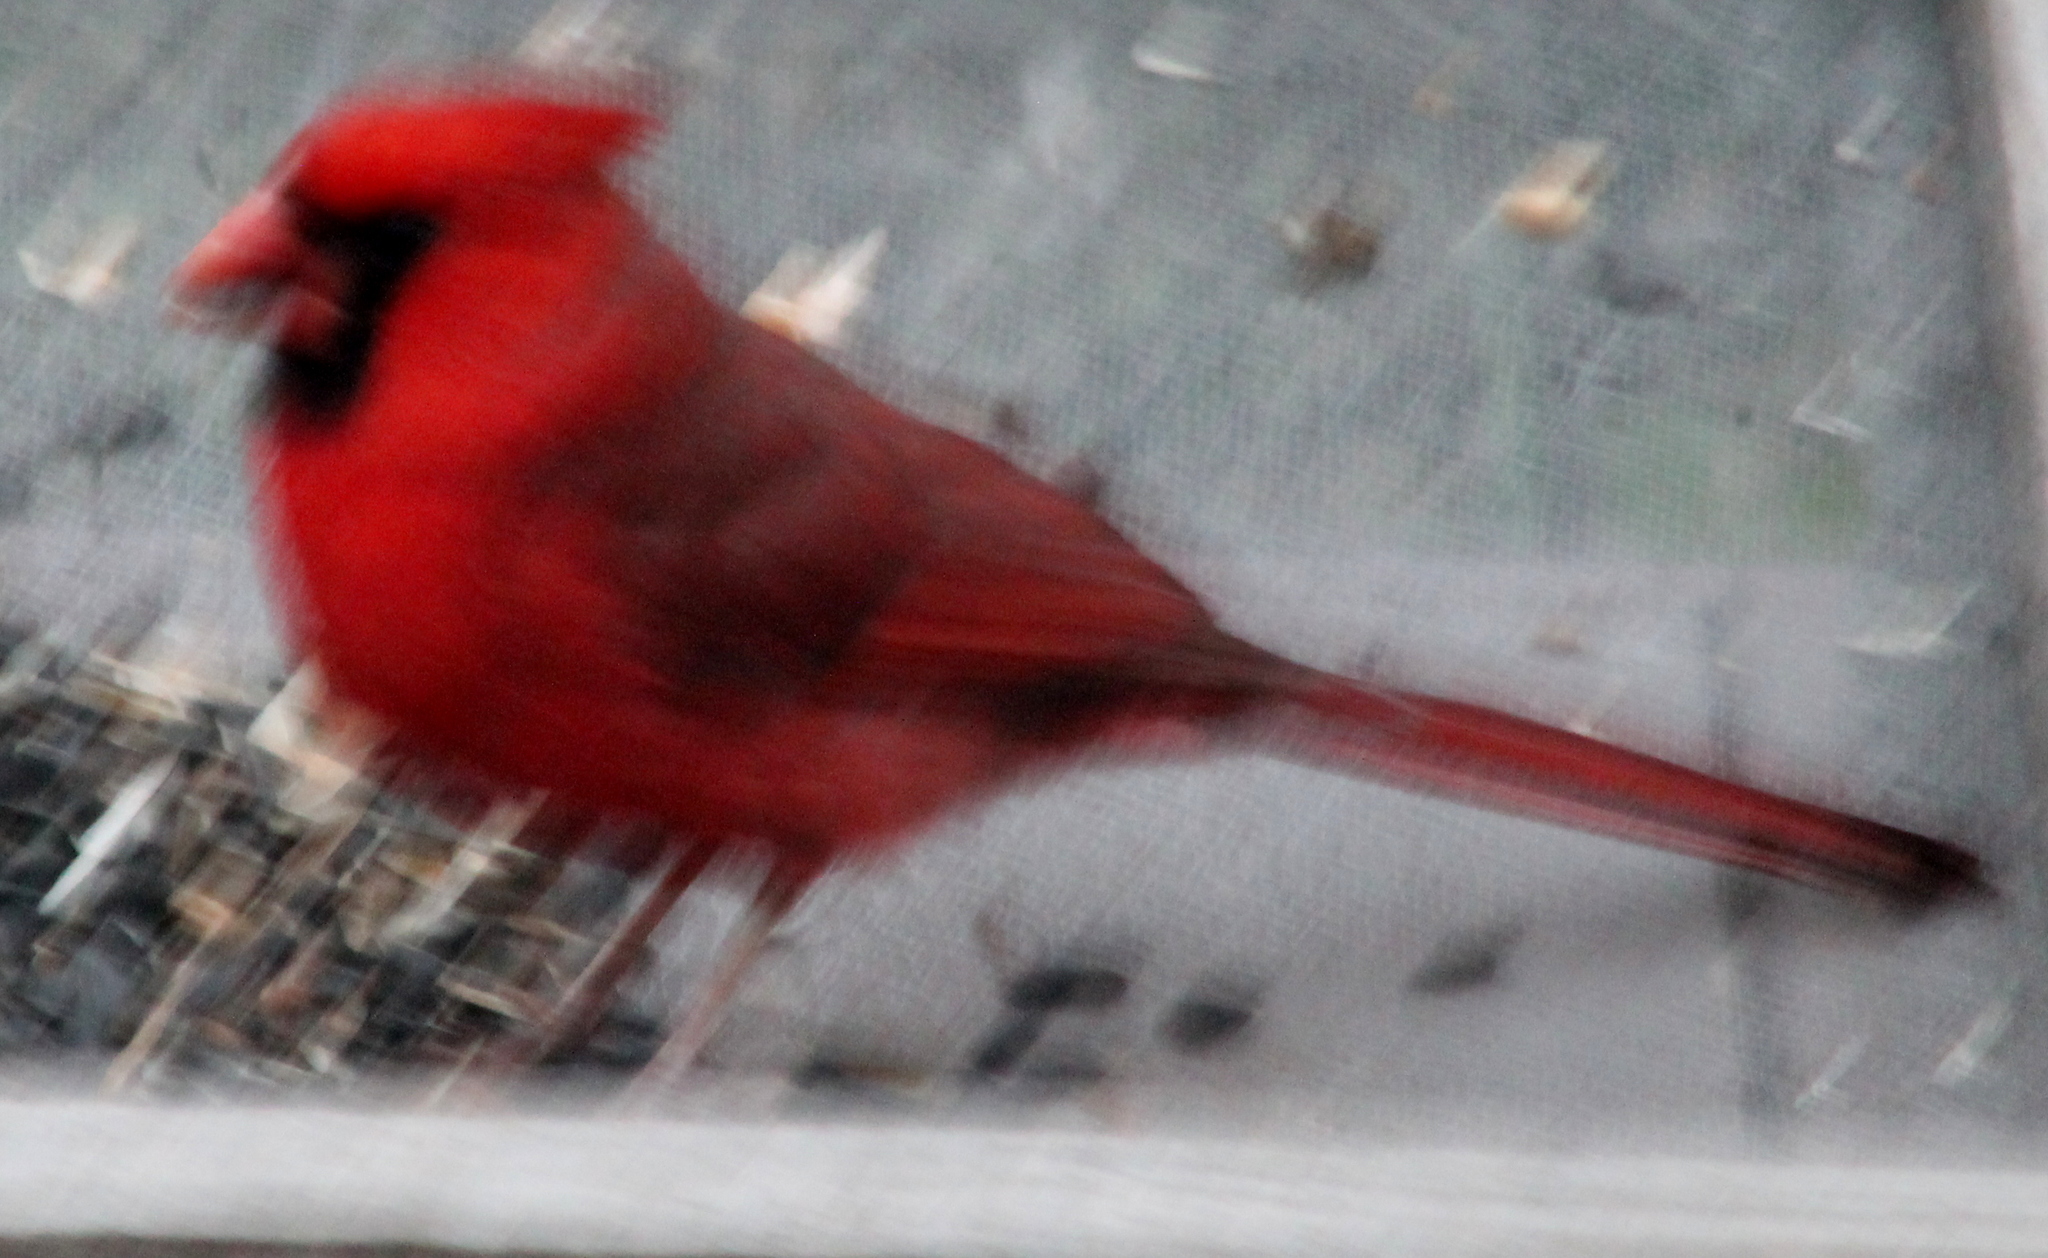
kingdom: Animalia
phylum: Chordata
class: Aves
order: Passeriformes
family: Cardinalidae
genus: Cardinalis
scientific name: Cardinalis cardinalis
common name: Northern cardinal
